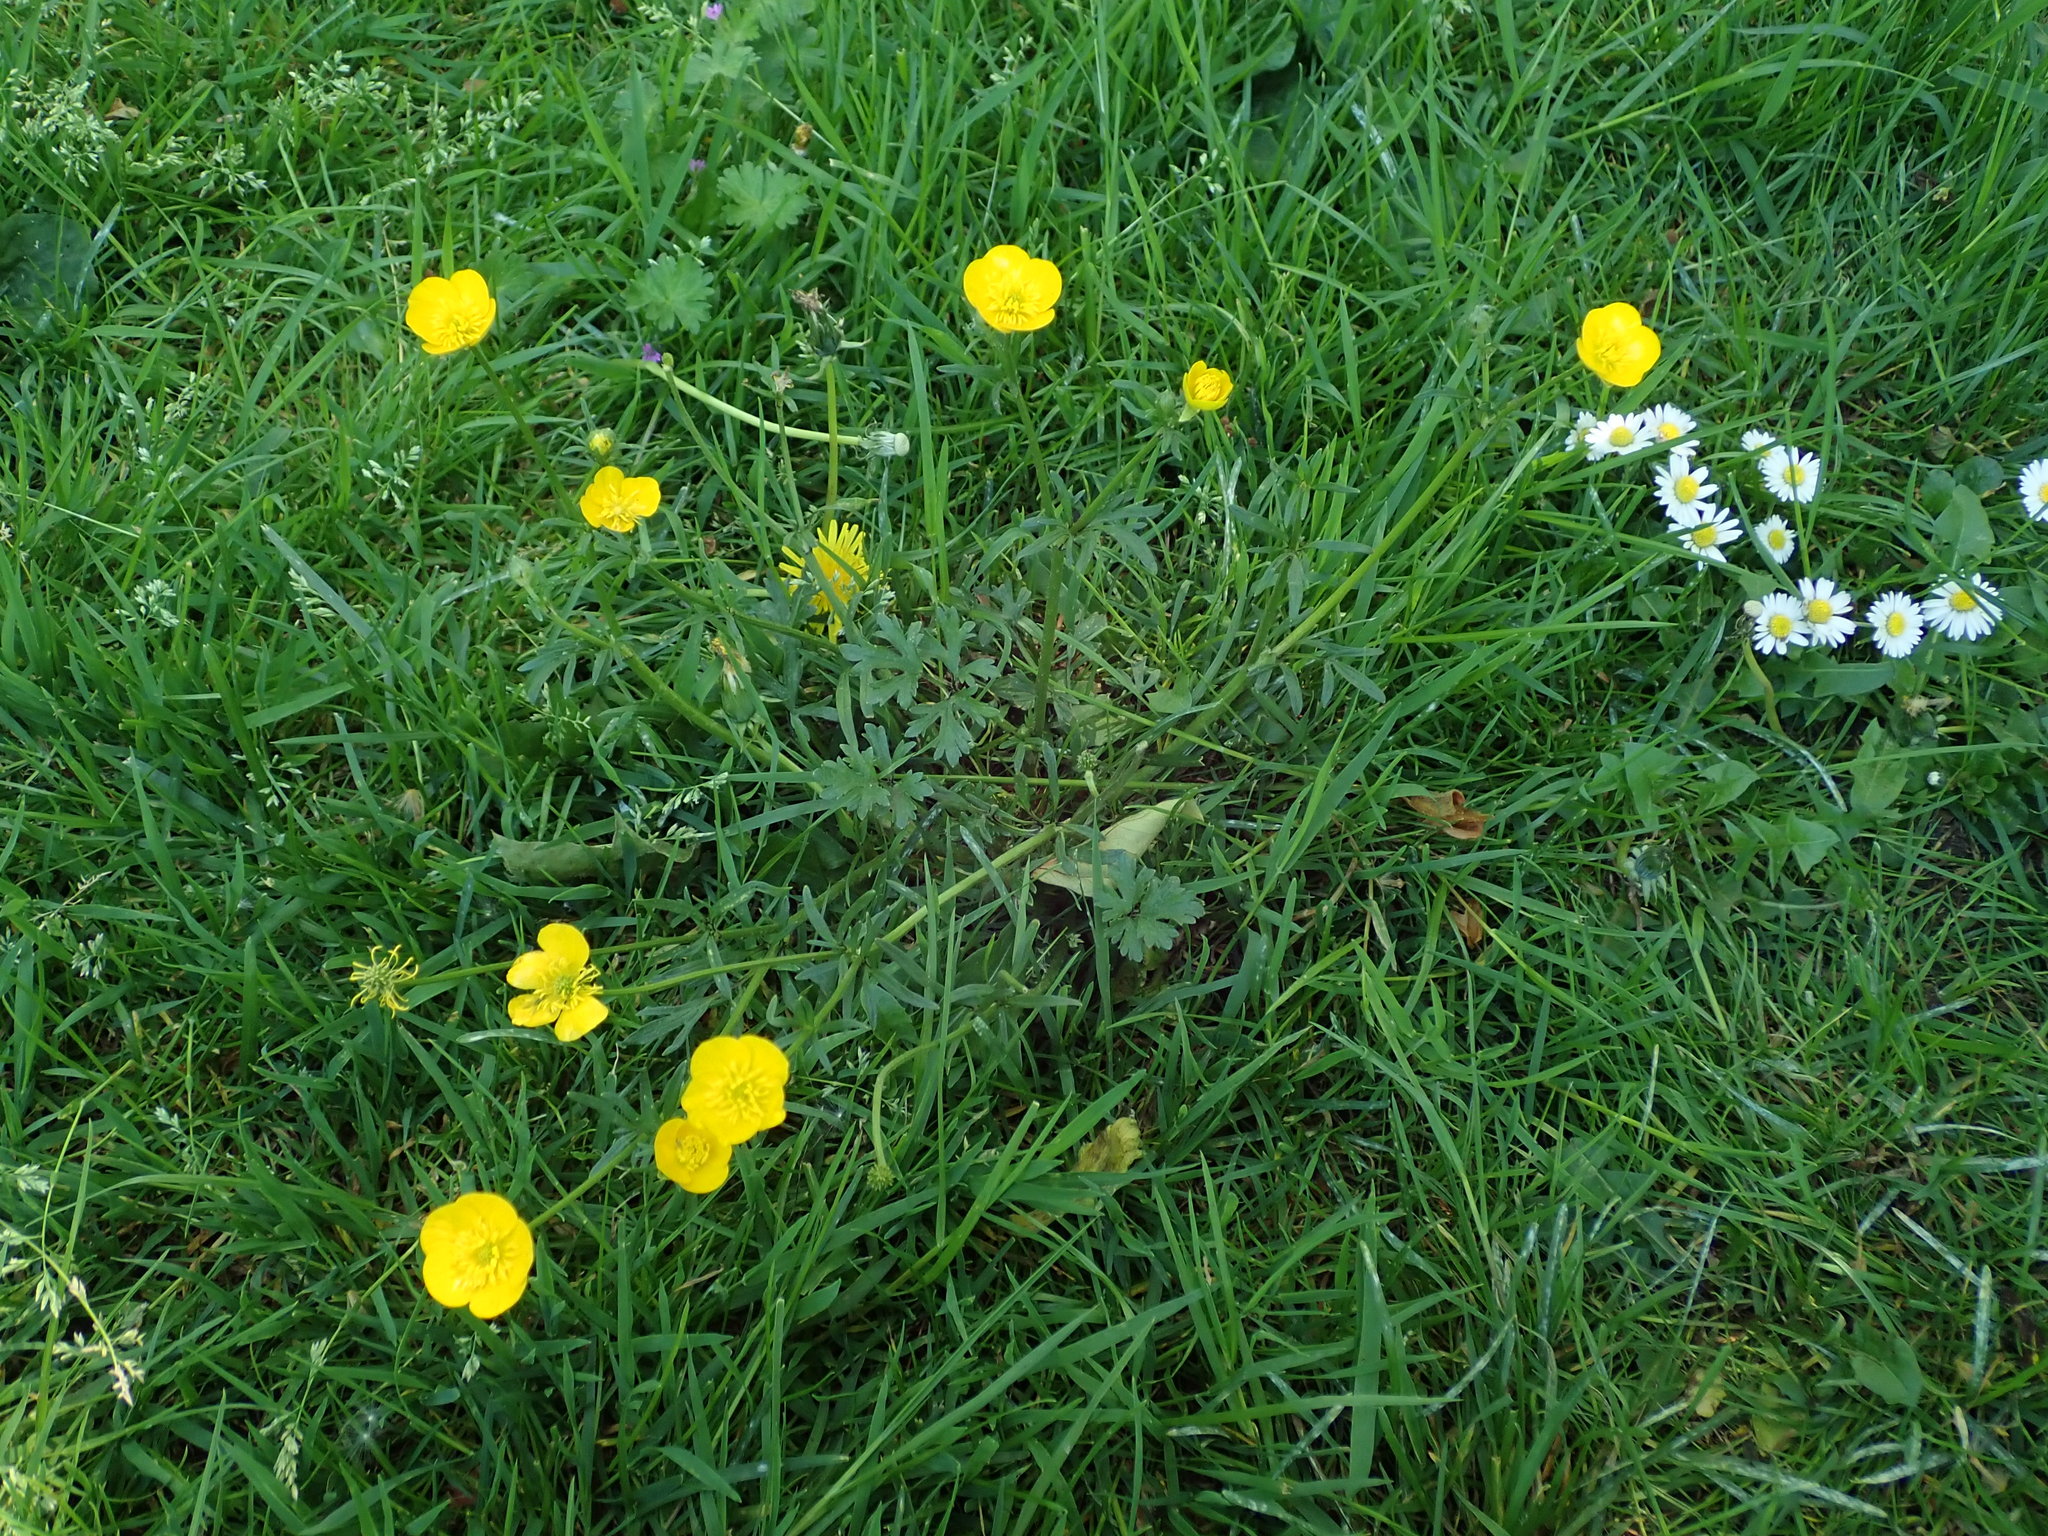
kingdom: Plantae
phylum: Tracheophyta
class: Magnoliopsida
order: Ranunculales
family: Ranunculaceae
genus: Ranunculus
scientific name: Ranunculus bulbosus
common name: Bulbous buttercup
